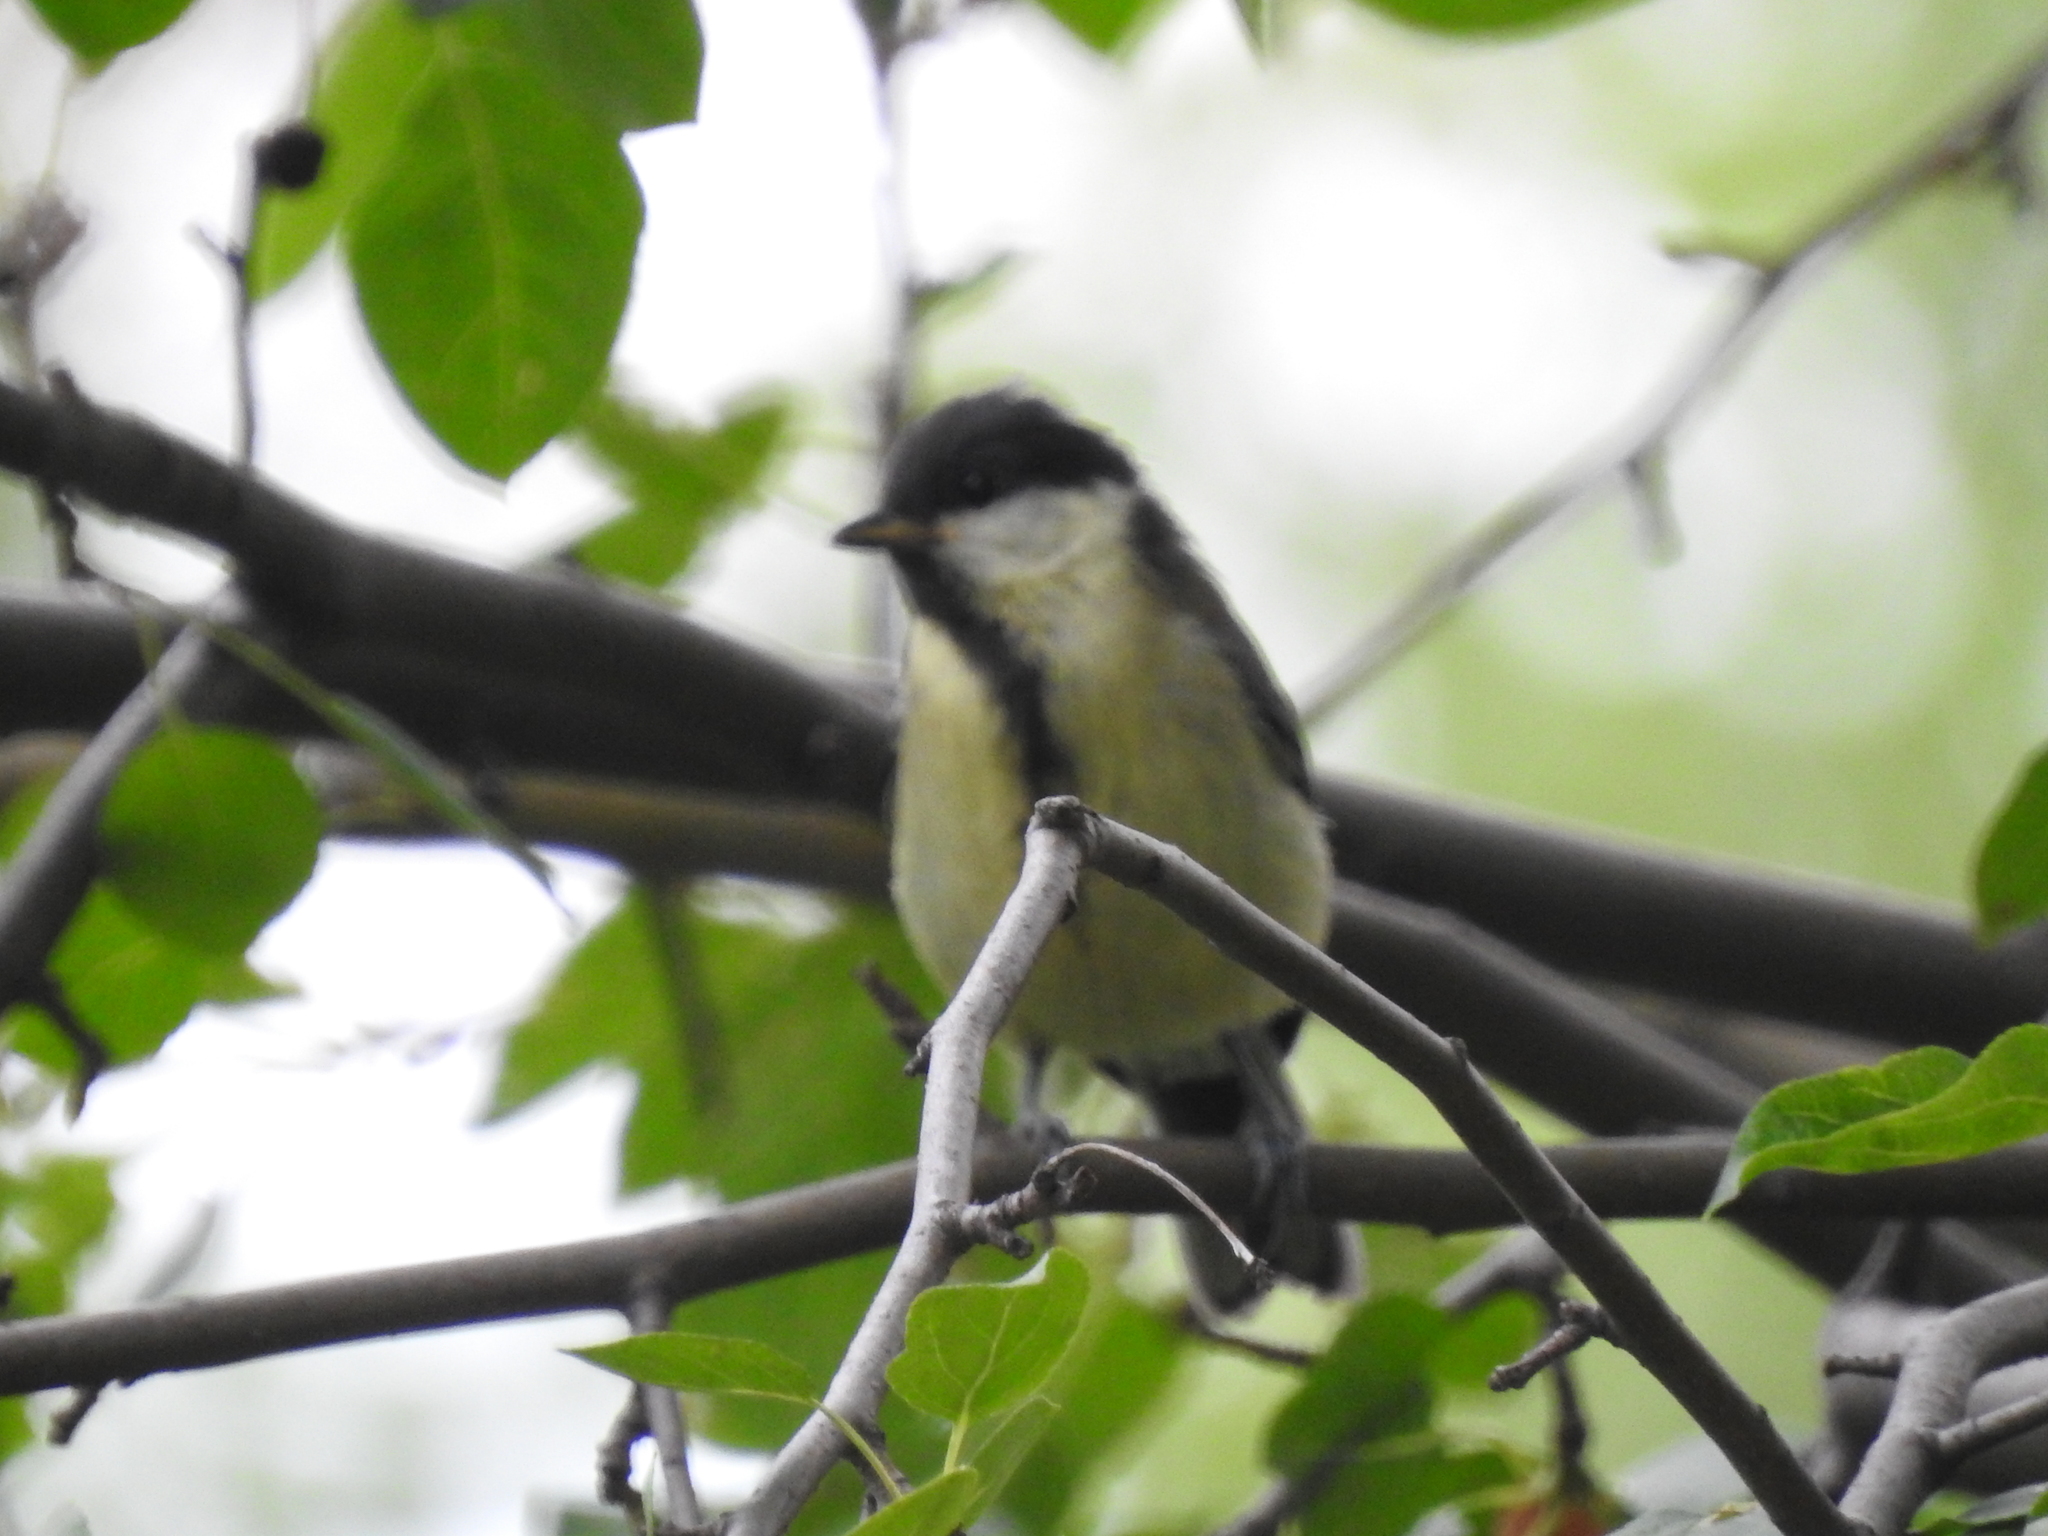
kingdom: Animalia
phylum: Chordata
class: Aves
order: Passeriformes
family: Paridae
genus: Parus
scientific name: Parus major
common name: Great tit
